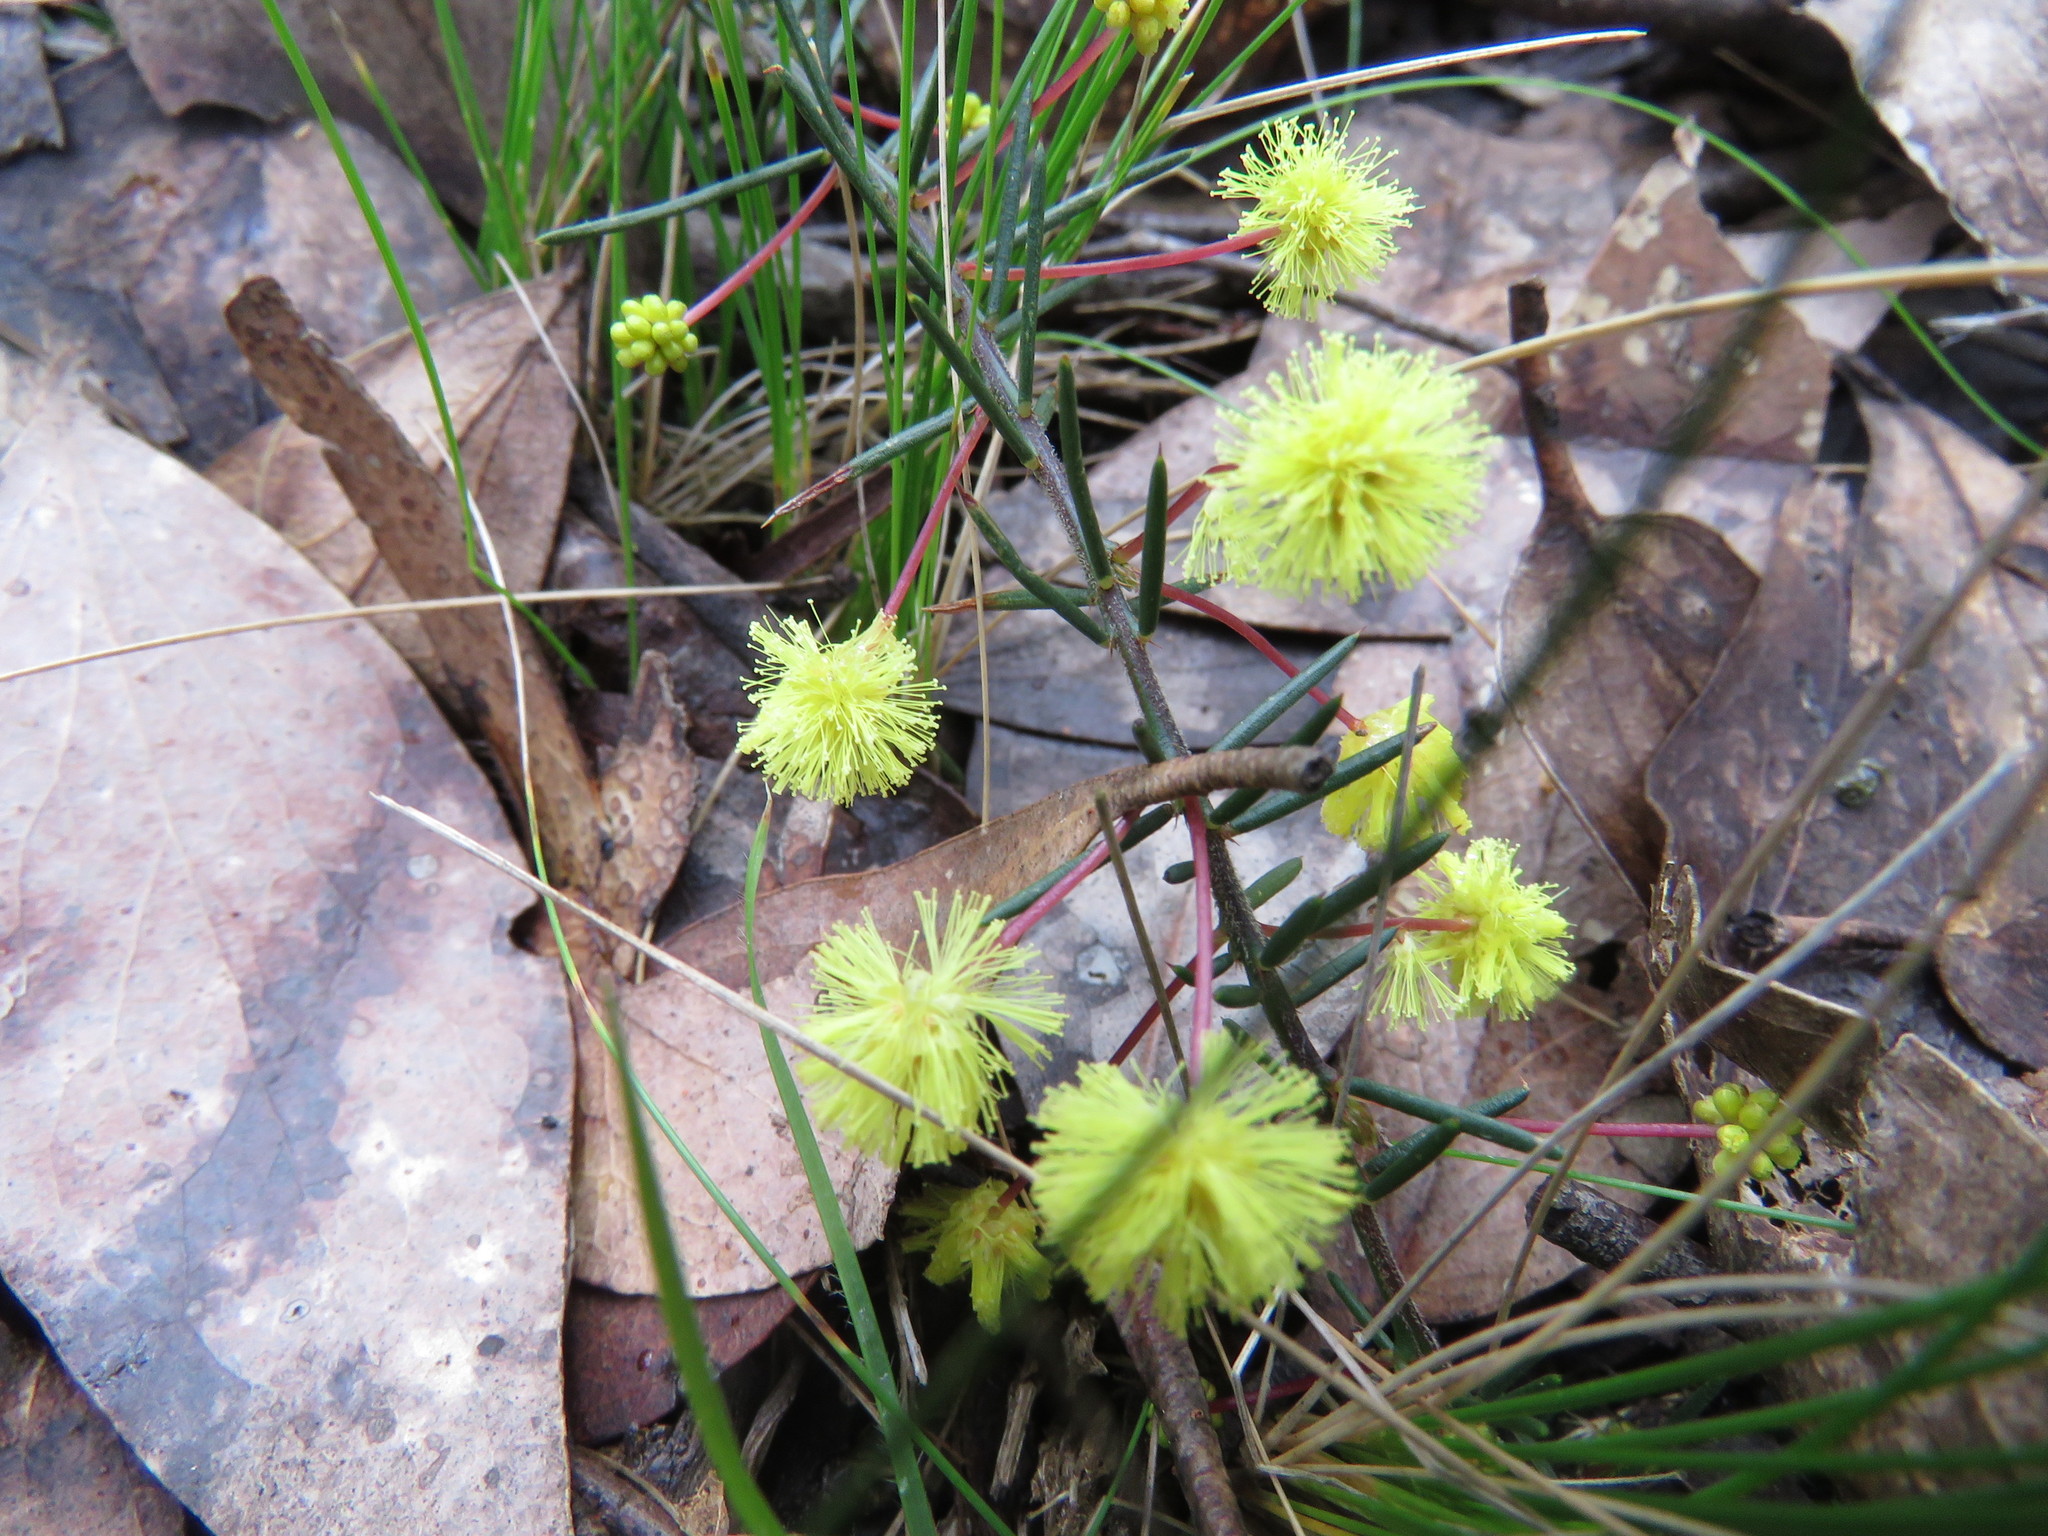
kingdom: Plantae
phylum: Tracheophyta
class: Magnoliopsida
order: Fabales
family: Fabaceae
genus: Acacia
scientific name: Acacia aculeatissima
